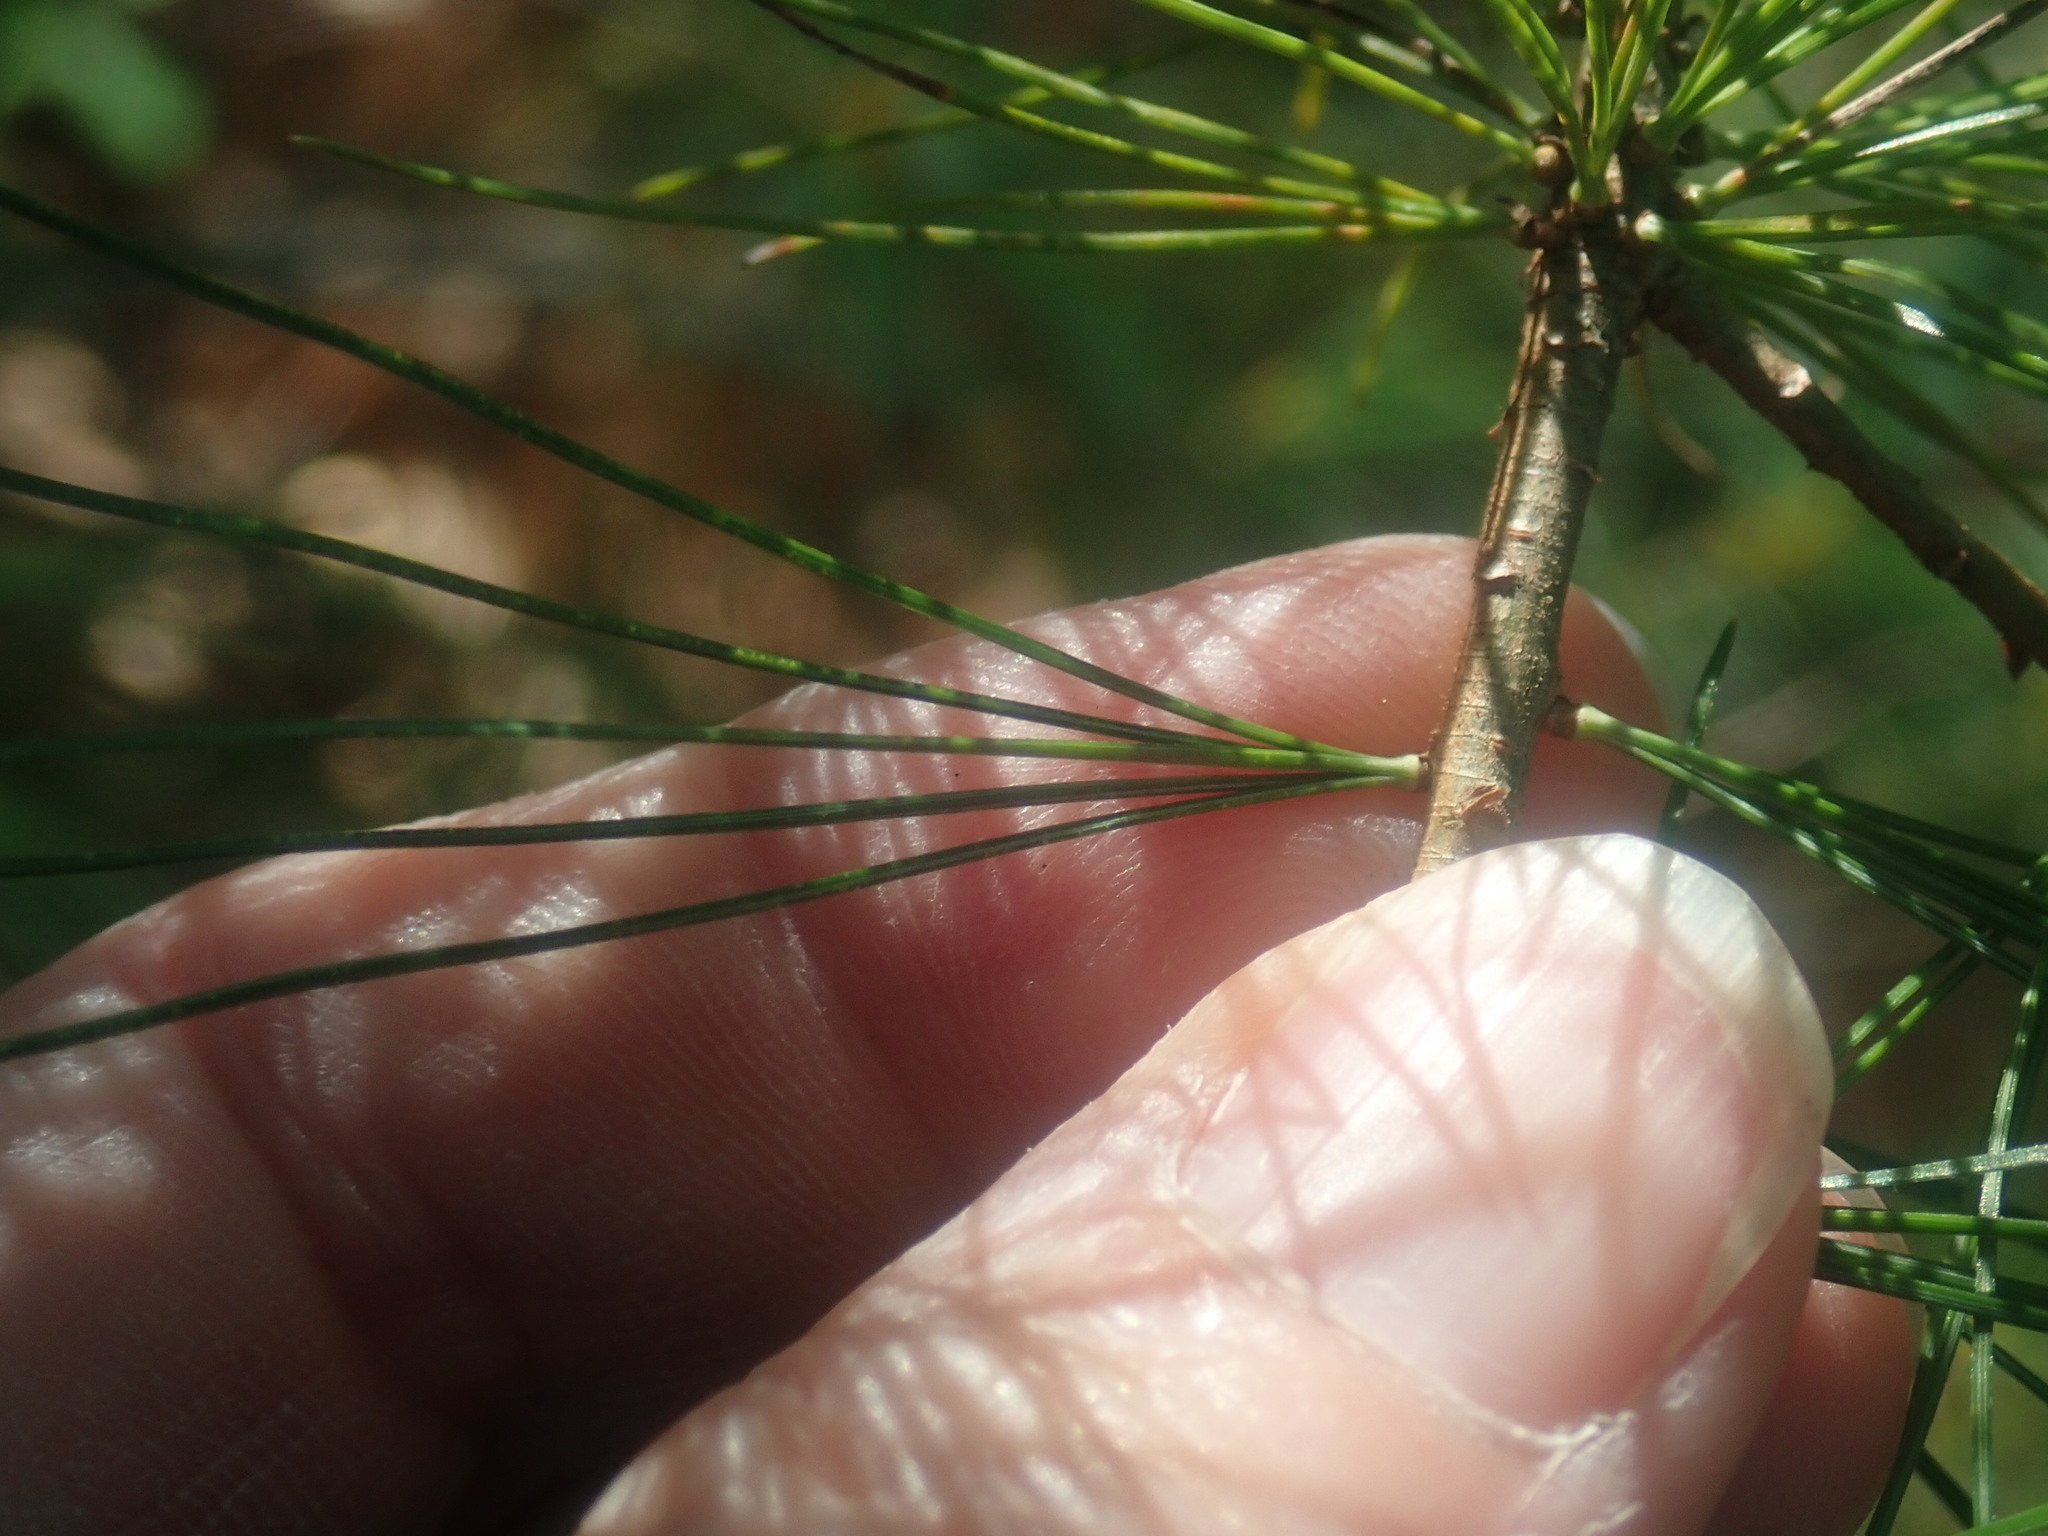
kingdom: Plantae
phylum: Tracheophyta
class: Pinopsida
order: Pinales
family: Pinaceae
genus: Pinus
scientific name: Pinus strobus
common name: Weymouth pine
